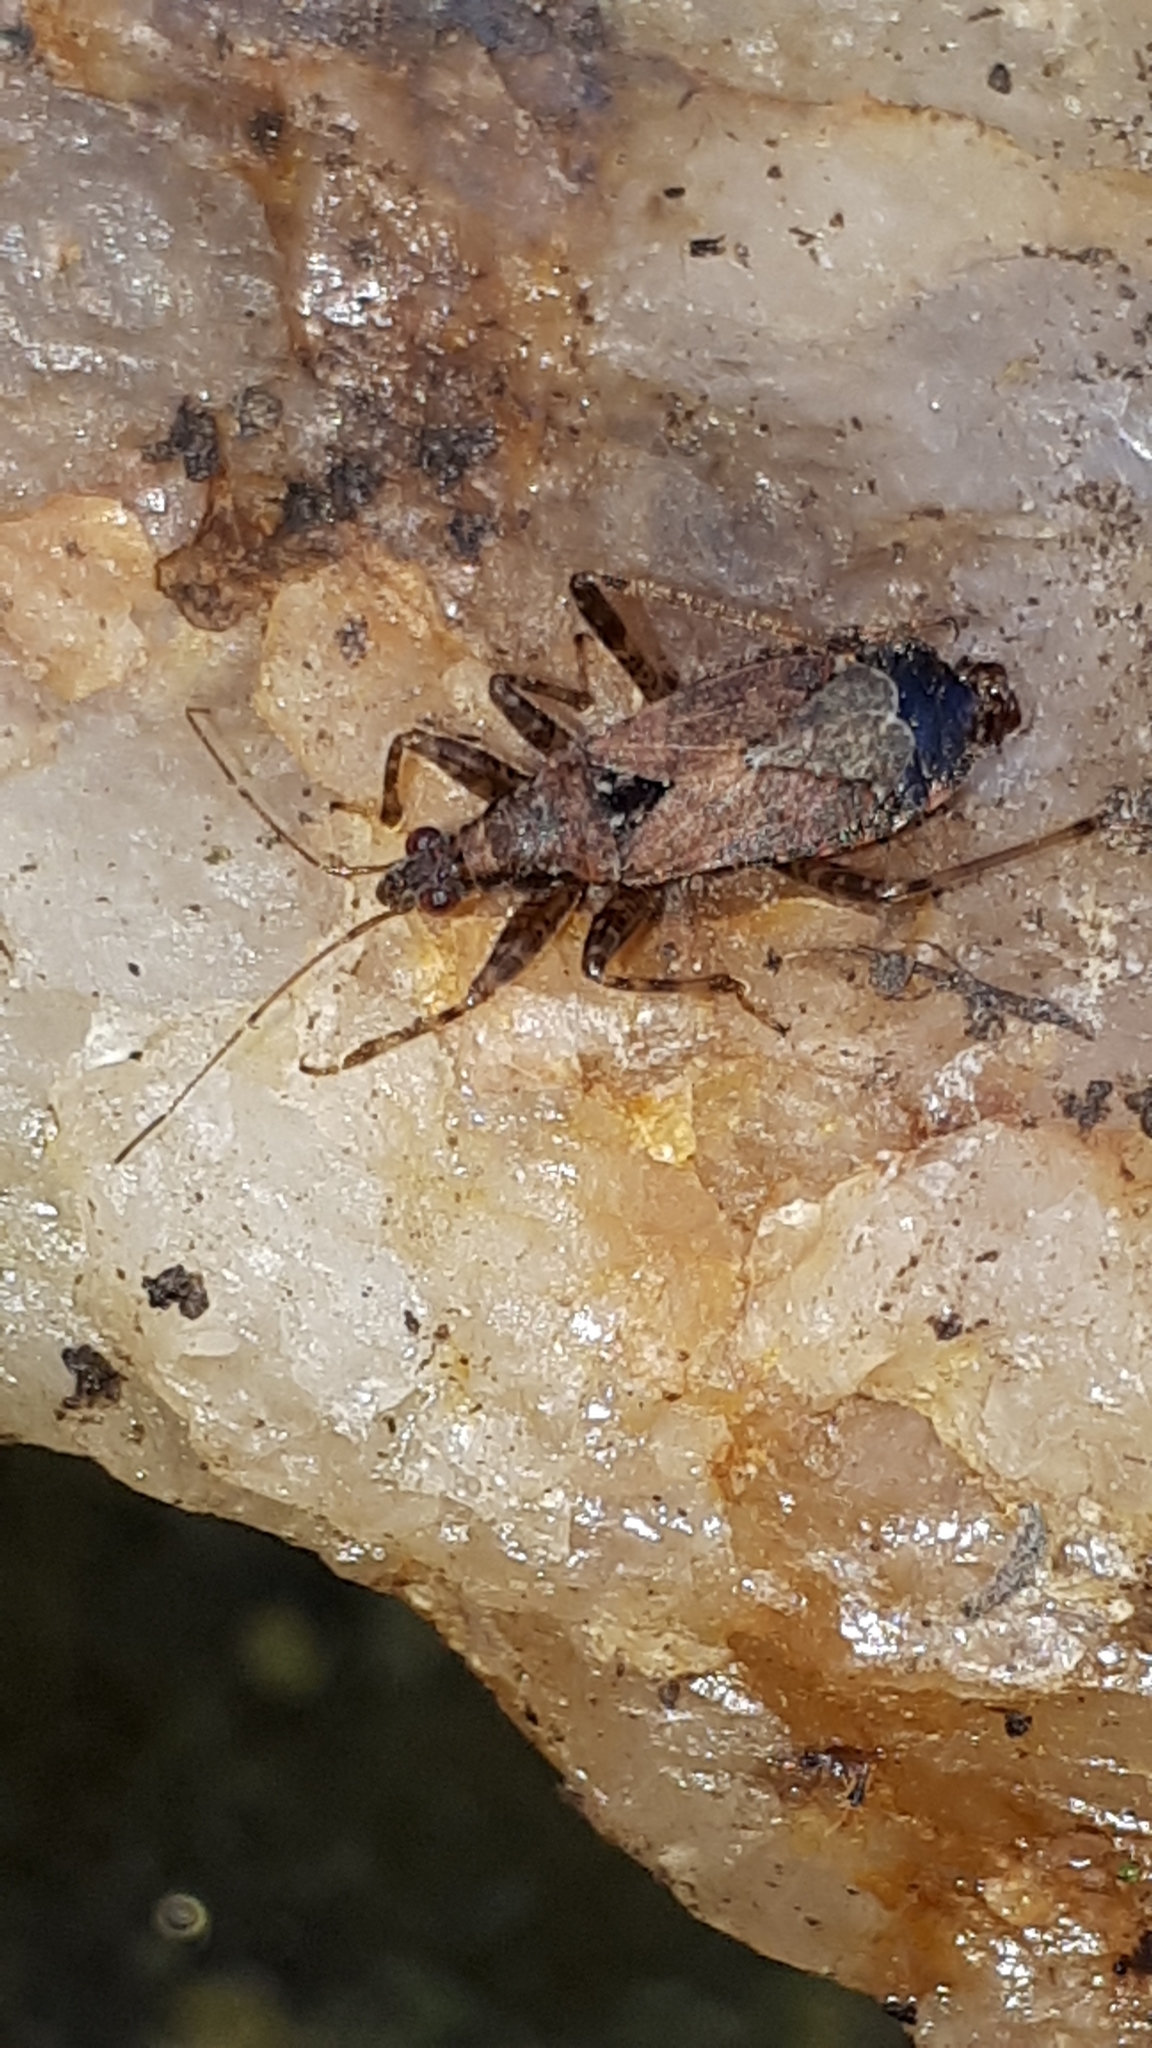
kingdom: Animalia
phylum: Arthropoda
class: Insecta
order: Hemiptera
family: Nabidae
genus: Himacerus
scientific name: Himacerus mirmicoides
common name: Ant damsel bug
